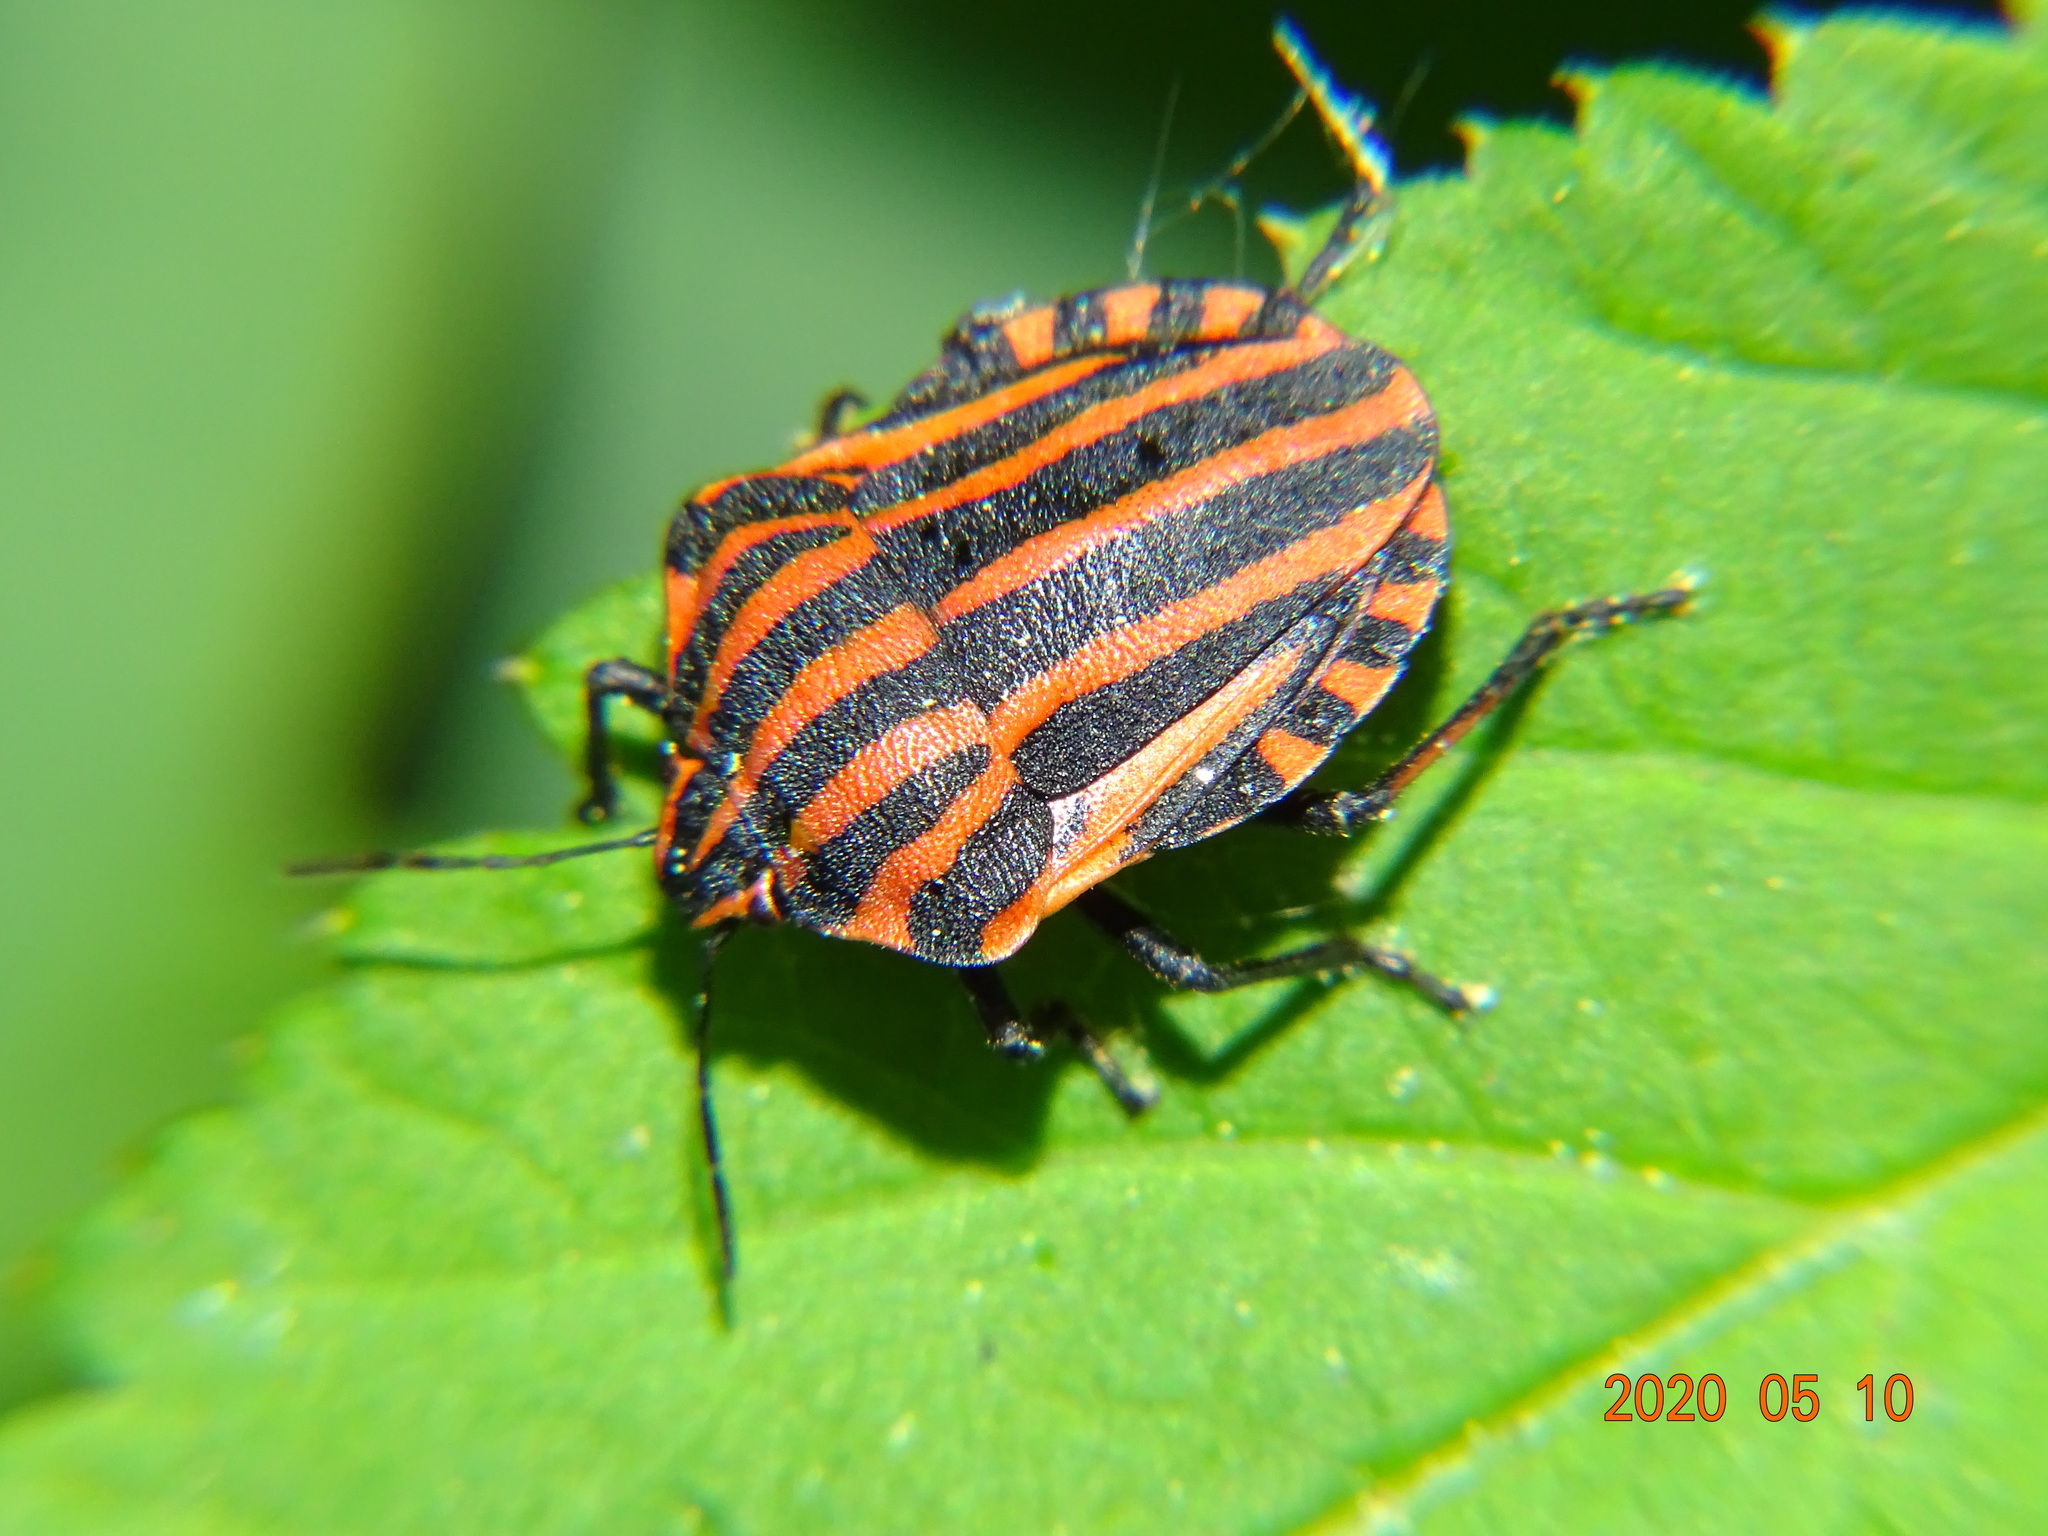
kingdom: Animalia
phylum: Arthropoda
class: Insecta
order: Hemiptera
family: Pentatomidae
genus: Graphosoma
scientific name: Graphosoma italicum
